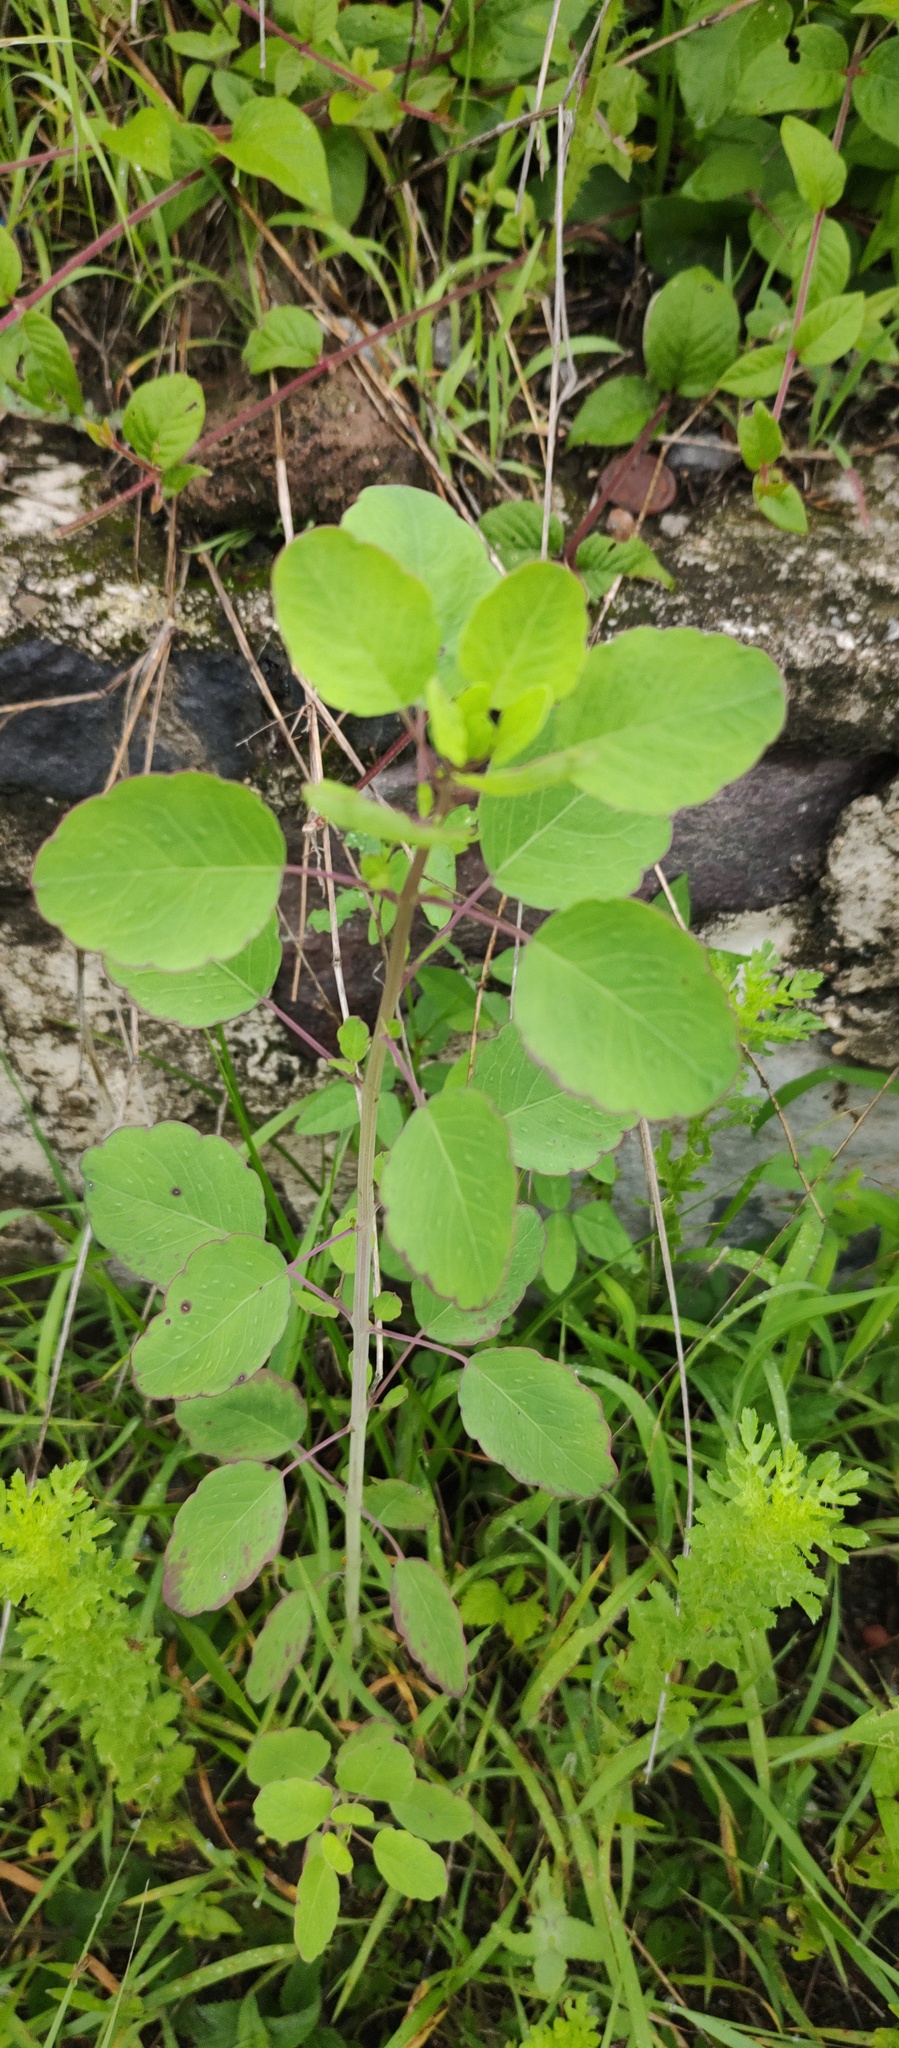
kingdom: Plantae
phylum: Tracheophyta
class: Magnoliopsida
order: Asterales
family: Asteraceae
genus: Porophyllum
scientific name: Porophyllum ruderale
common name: Yerba porosa
